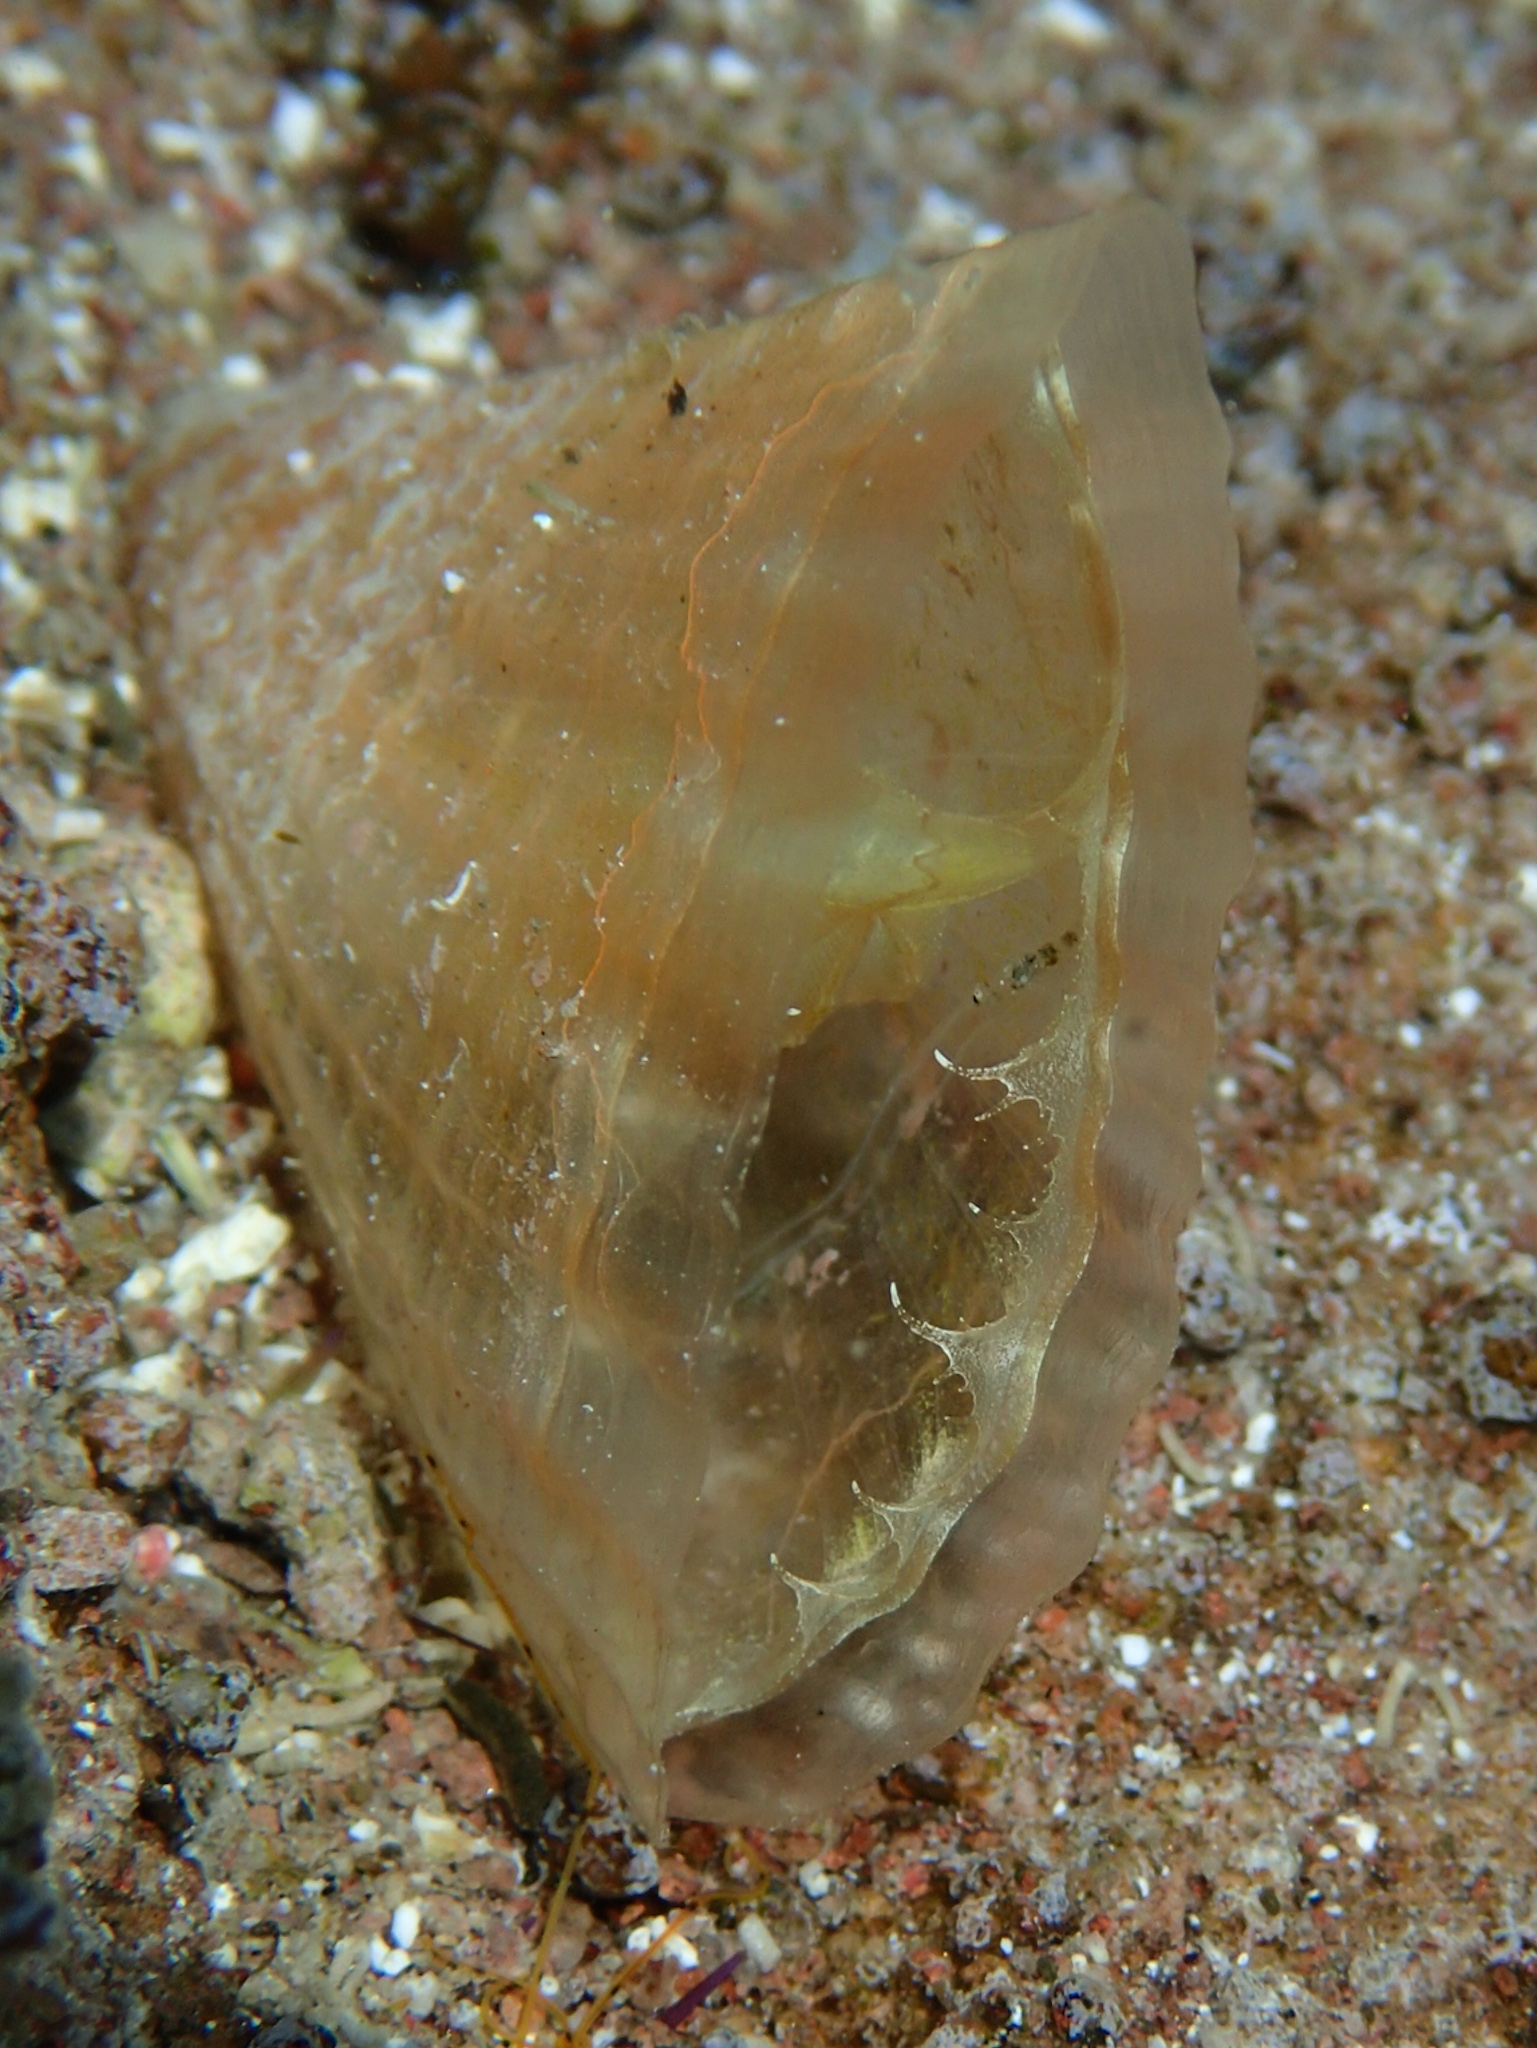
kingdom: Animalia
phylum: Mollusca
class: Bivalvia
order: Ostreida
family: Pinnidae
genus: Pinna
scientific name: Pinna carnea
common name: Amber penshell
